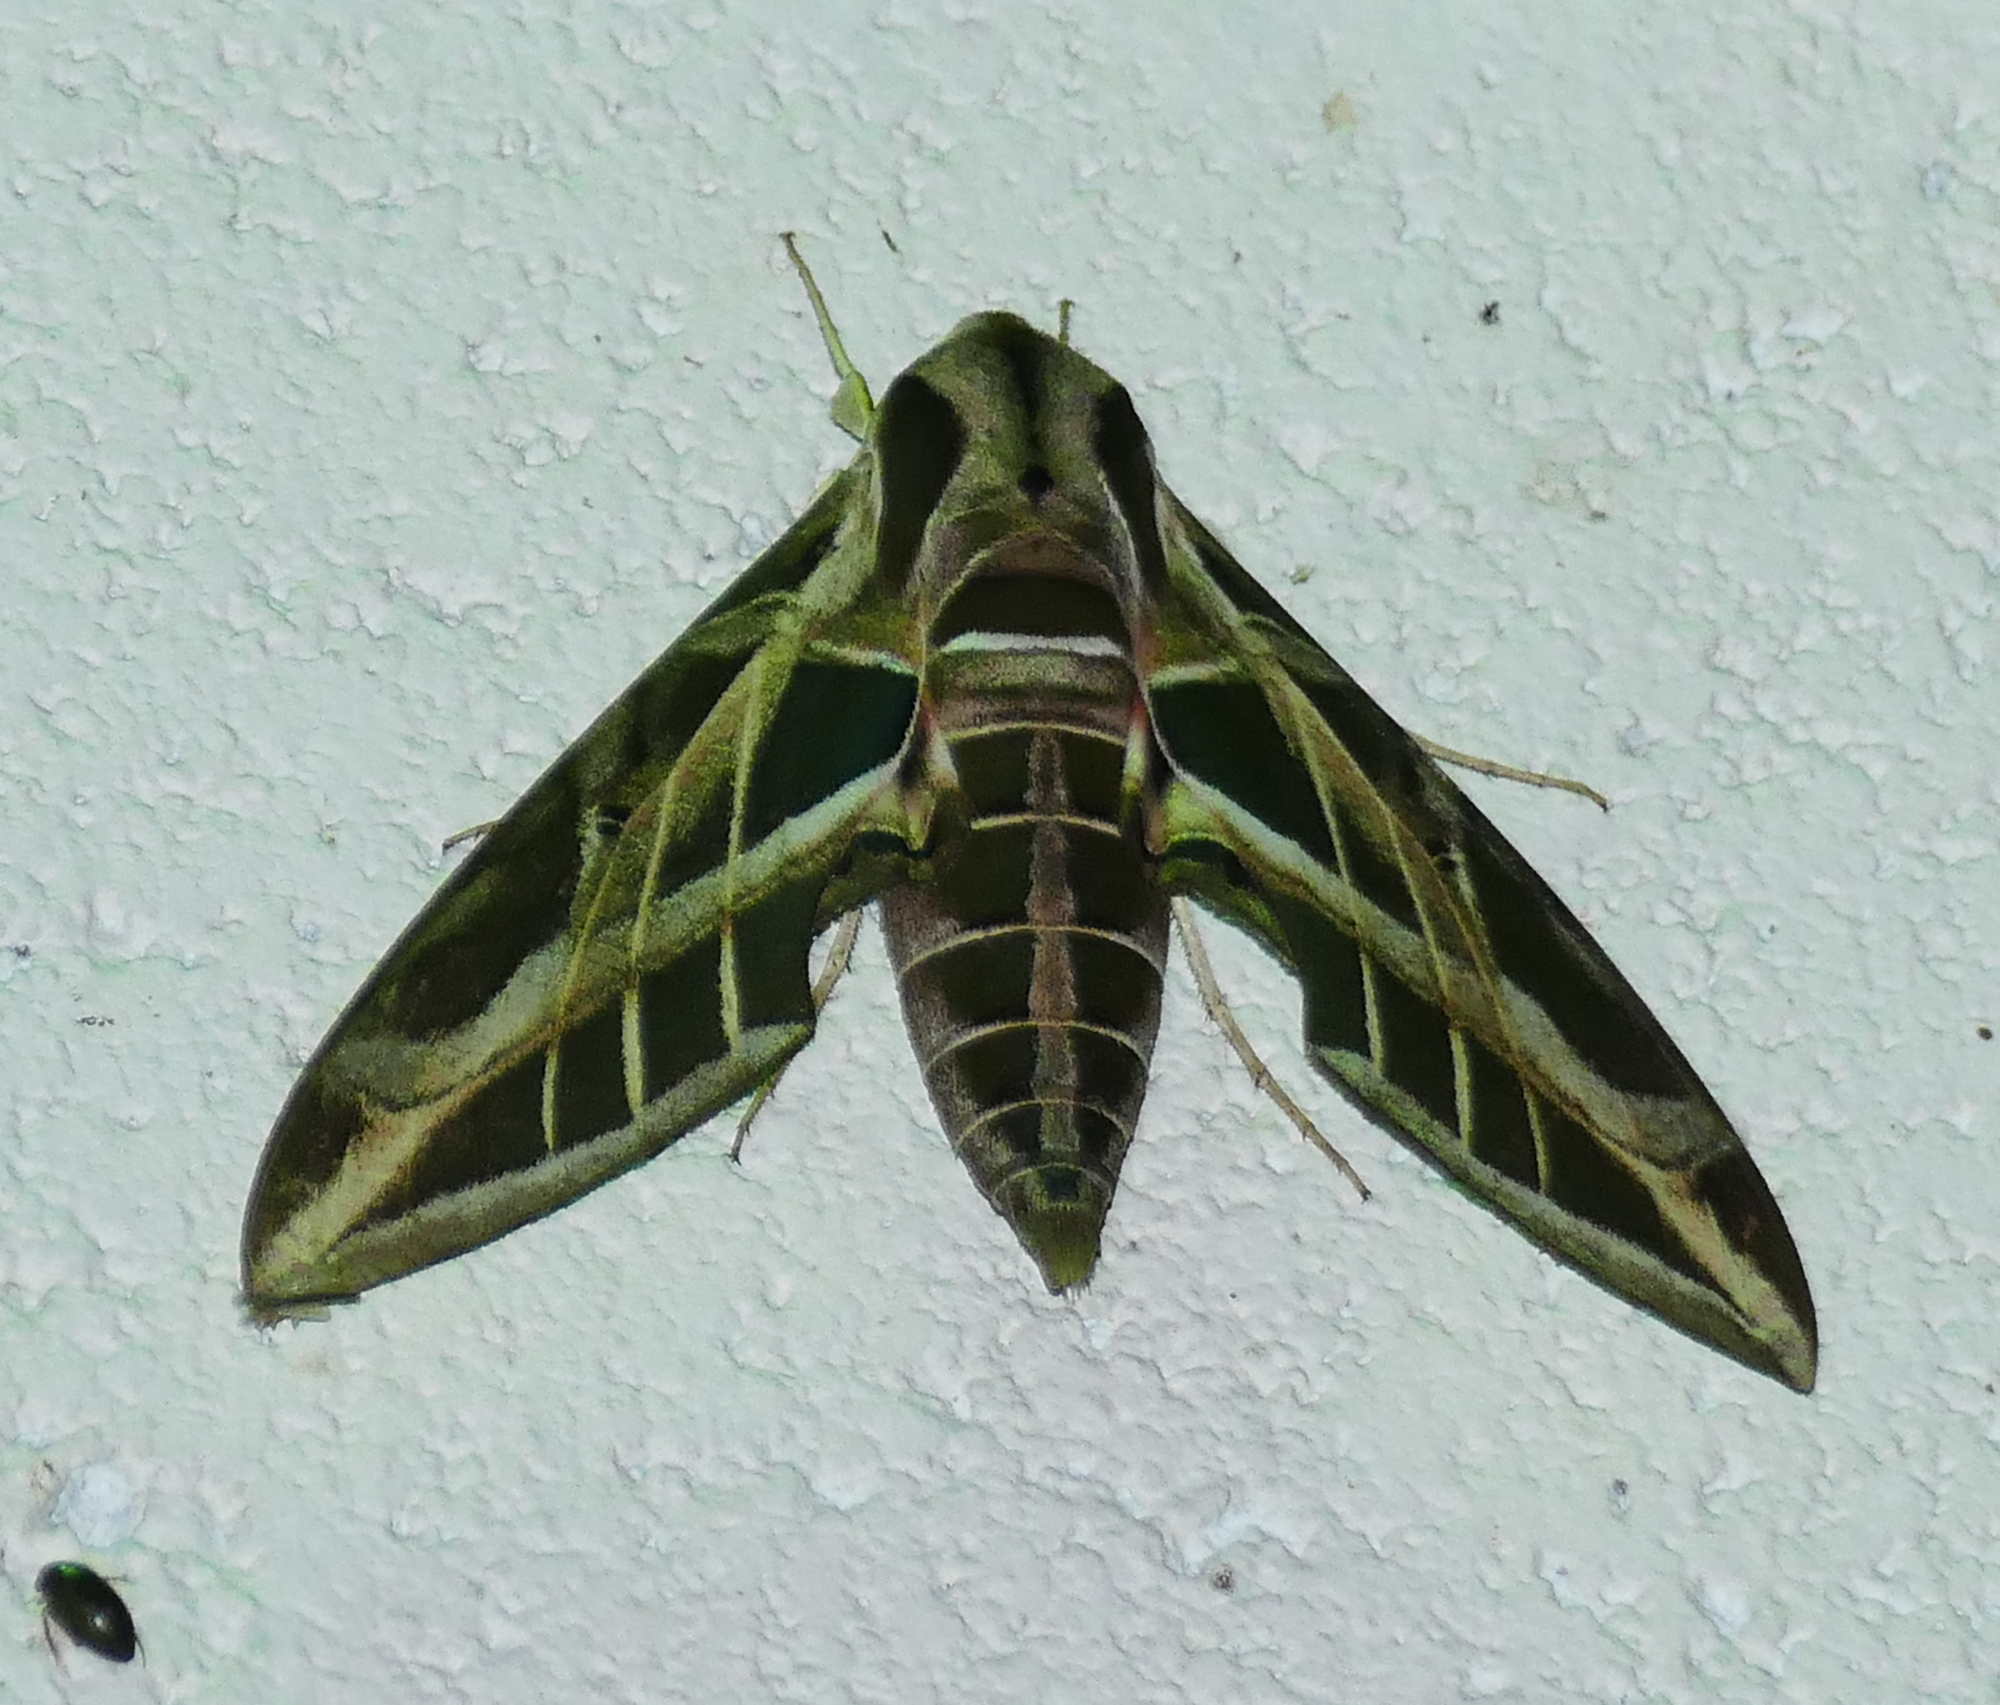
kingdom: Animalia
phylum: Arthropoda
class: Insecta
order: Lepidoptera
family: Sphingidae
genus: Eumorpha
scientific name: Eumorpha vitis
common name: Vine sphinx
